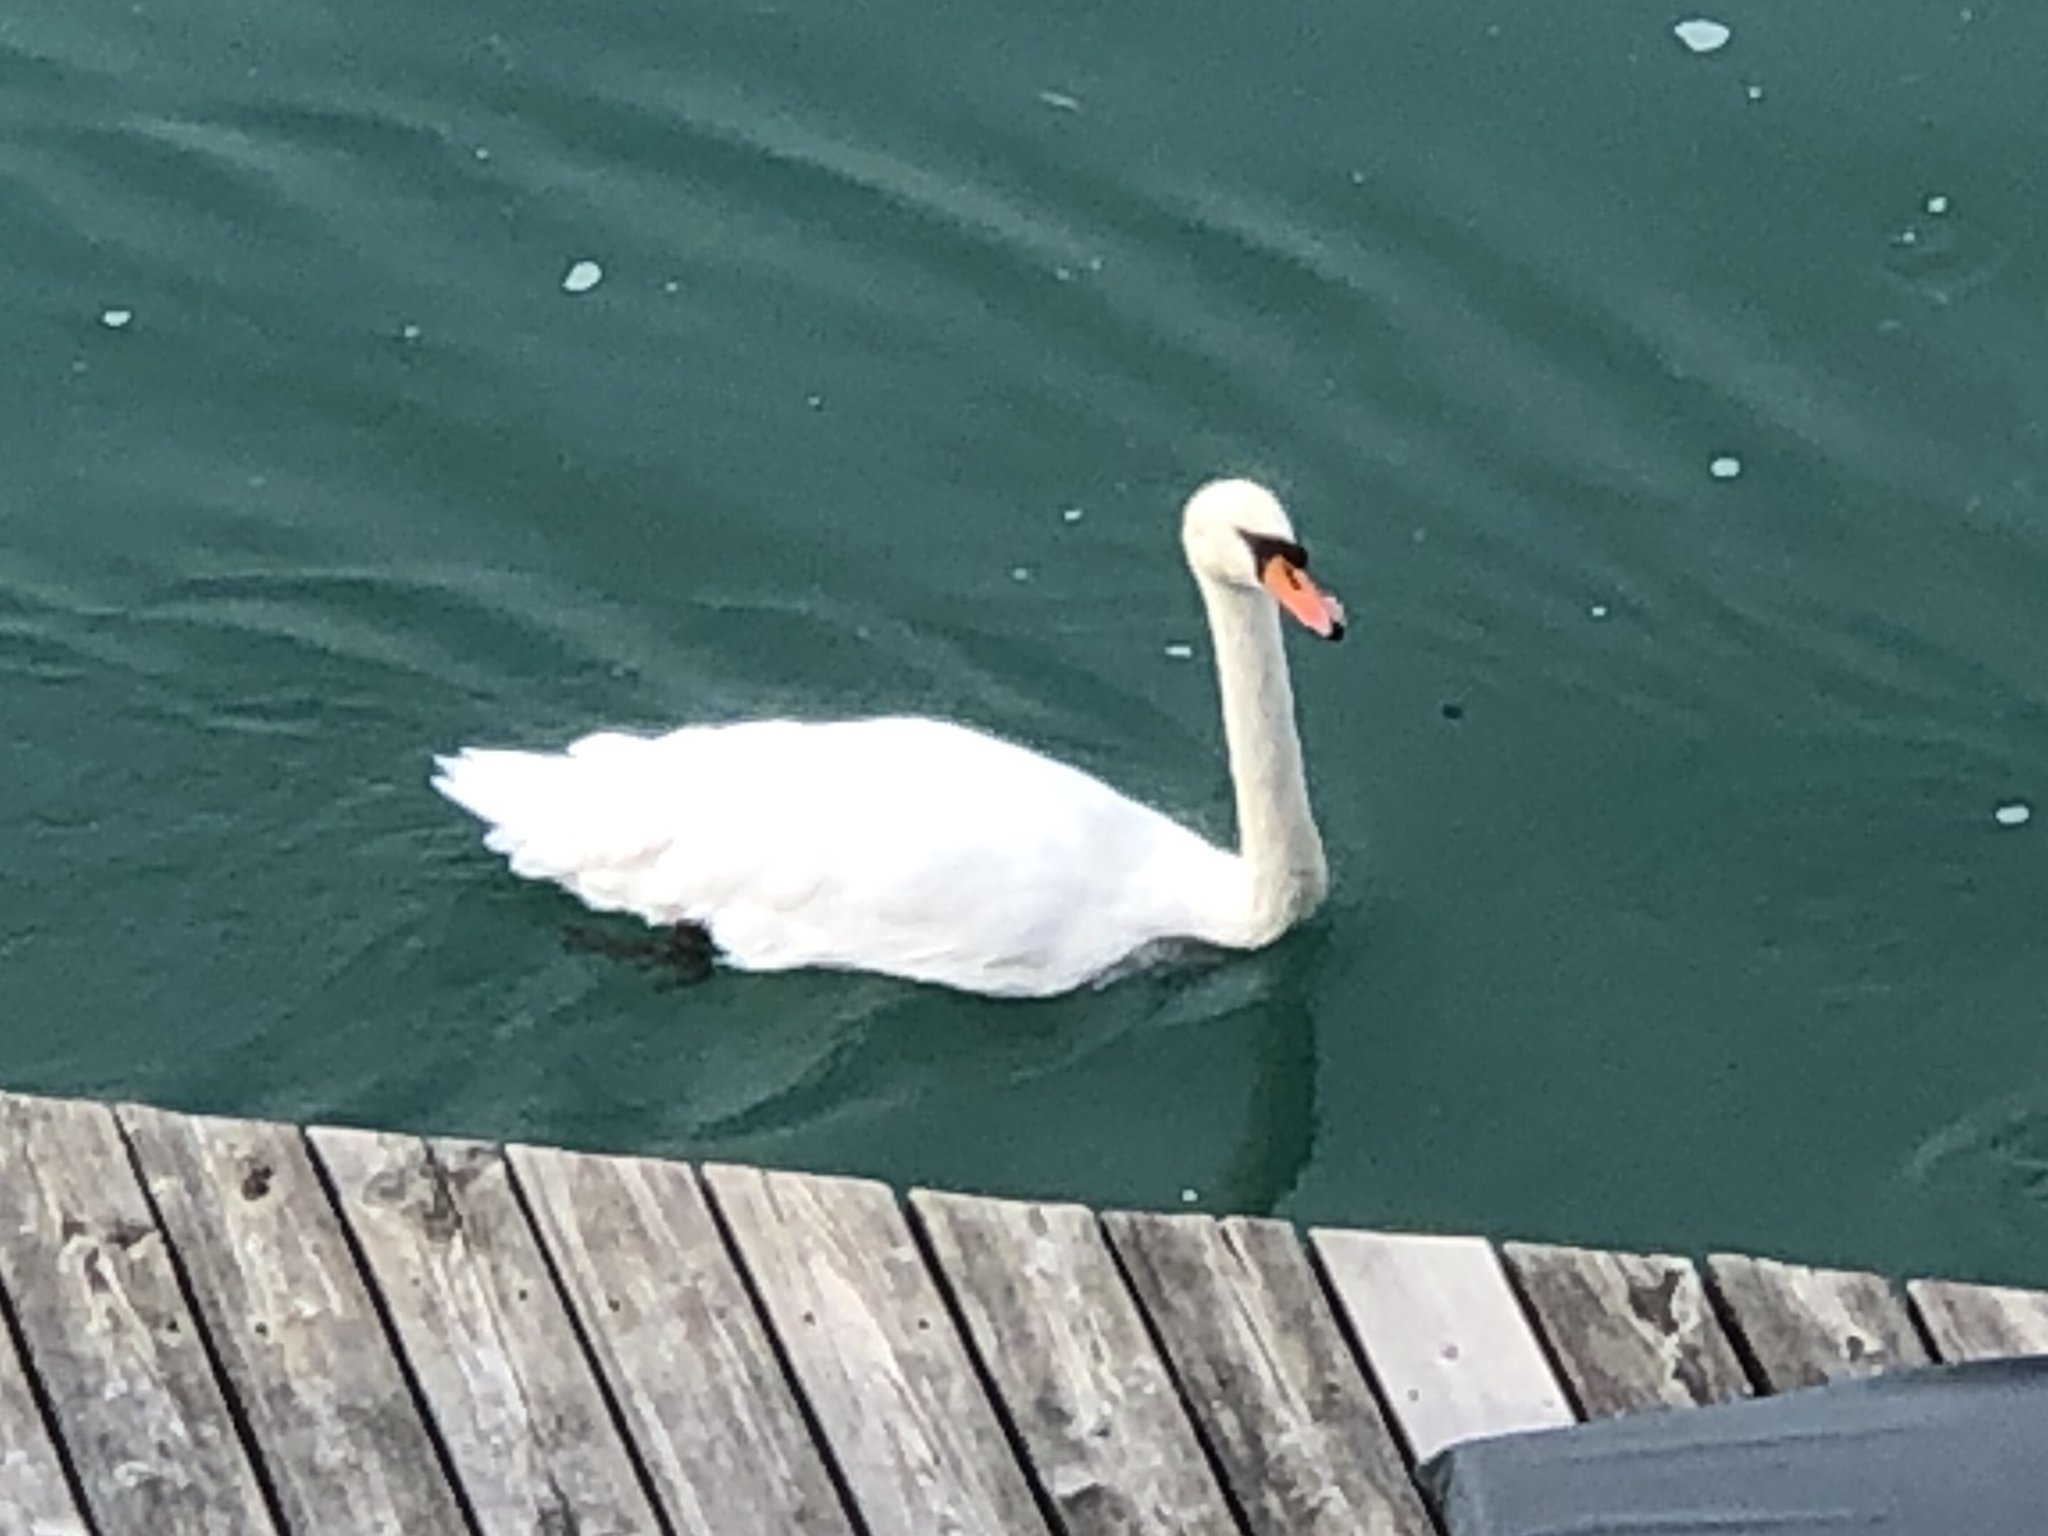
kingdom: Animalia
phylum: Chordata
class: Aves
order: Anseriformes
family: Anatidae
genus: Cygnus
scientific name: Cygnus olor
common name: Mute swan
